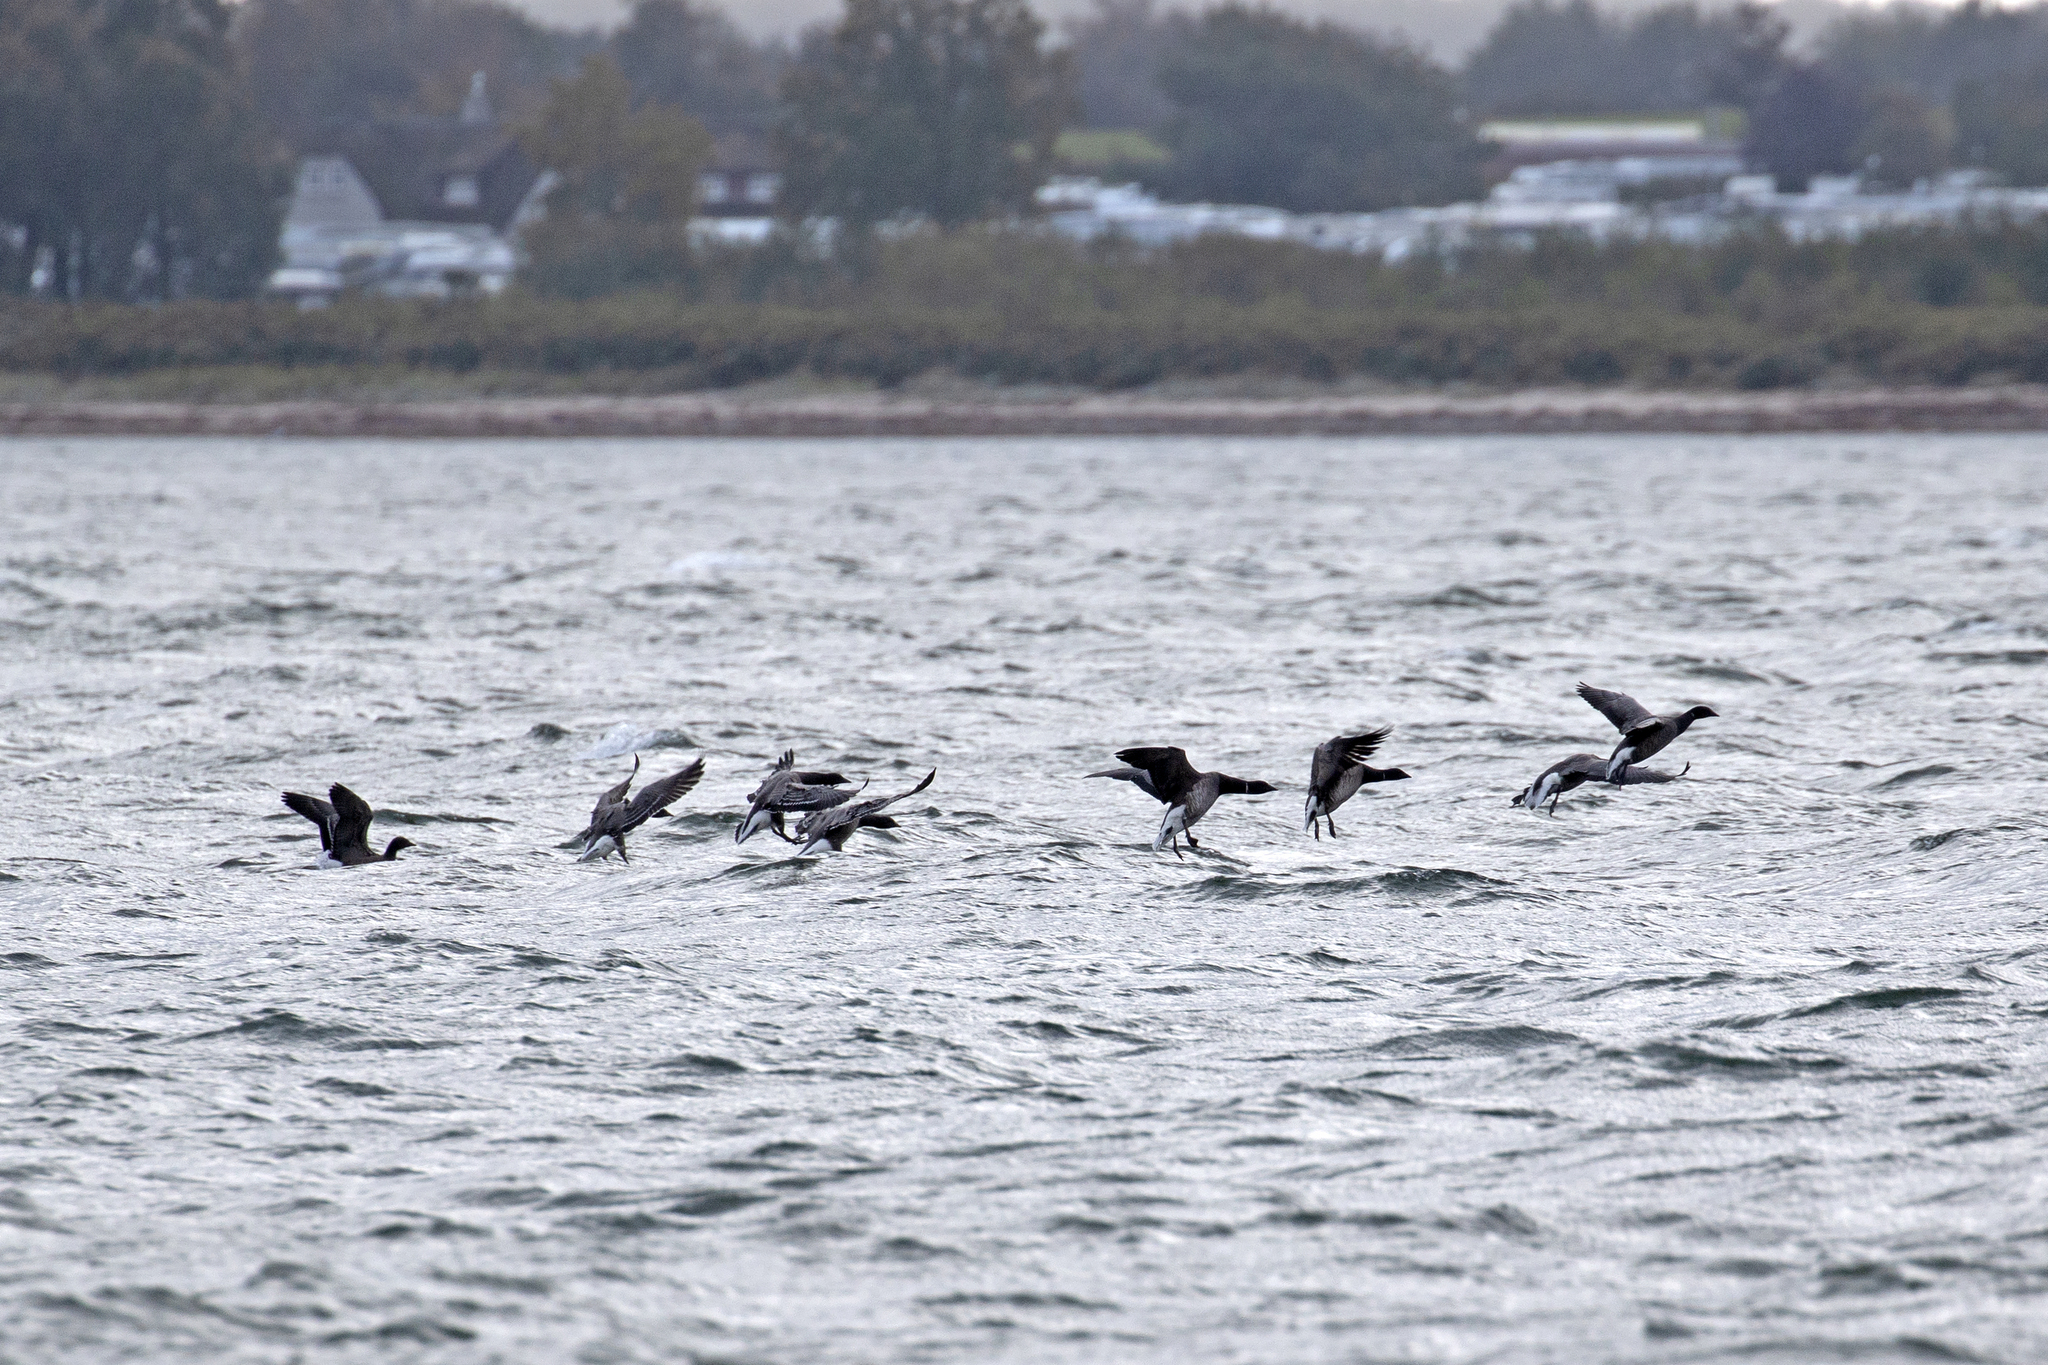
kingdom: Animalia
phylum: Chordata
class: Aves
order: Anseriformes
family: Anatidae
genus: Branta
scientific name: Branta bernicla
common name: Brant goose
